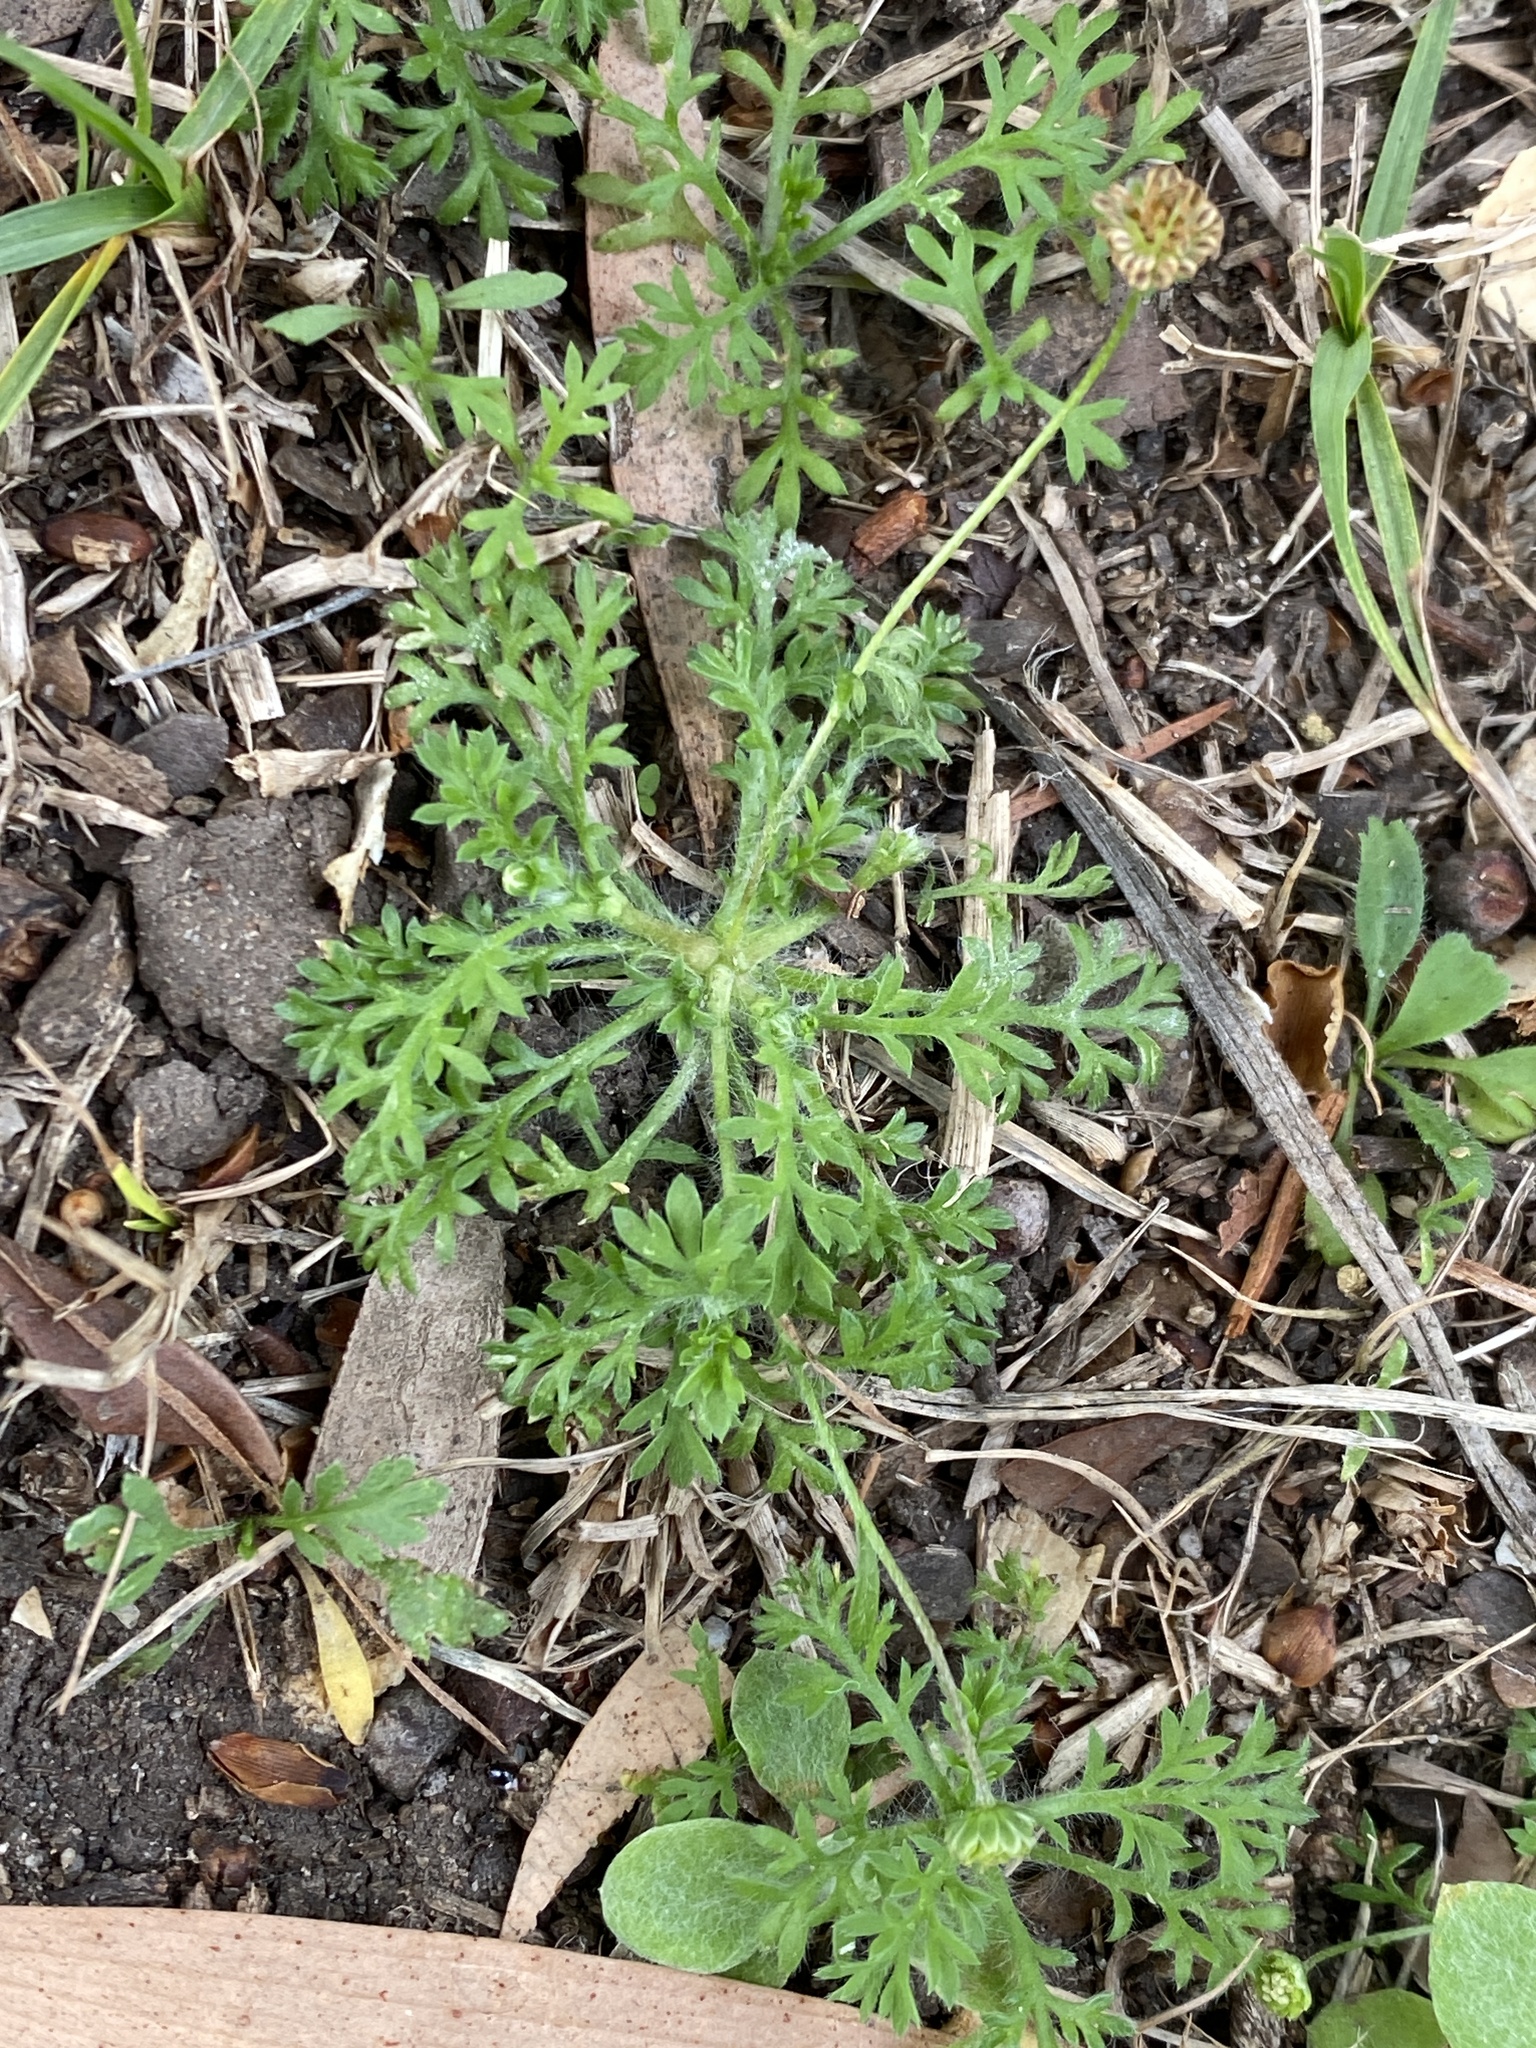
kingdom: Plantae
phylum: Tracheophyta
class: Magnoliopsida
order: Asterales
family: Asteraceae
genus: Cotula
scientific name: Cotula australis
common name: Australian waterbuttons
